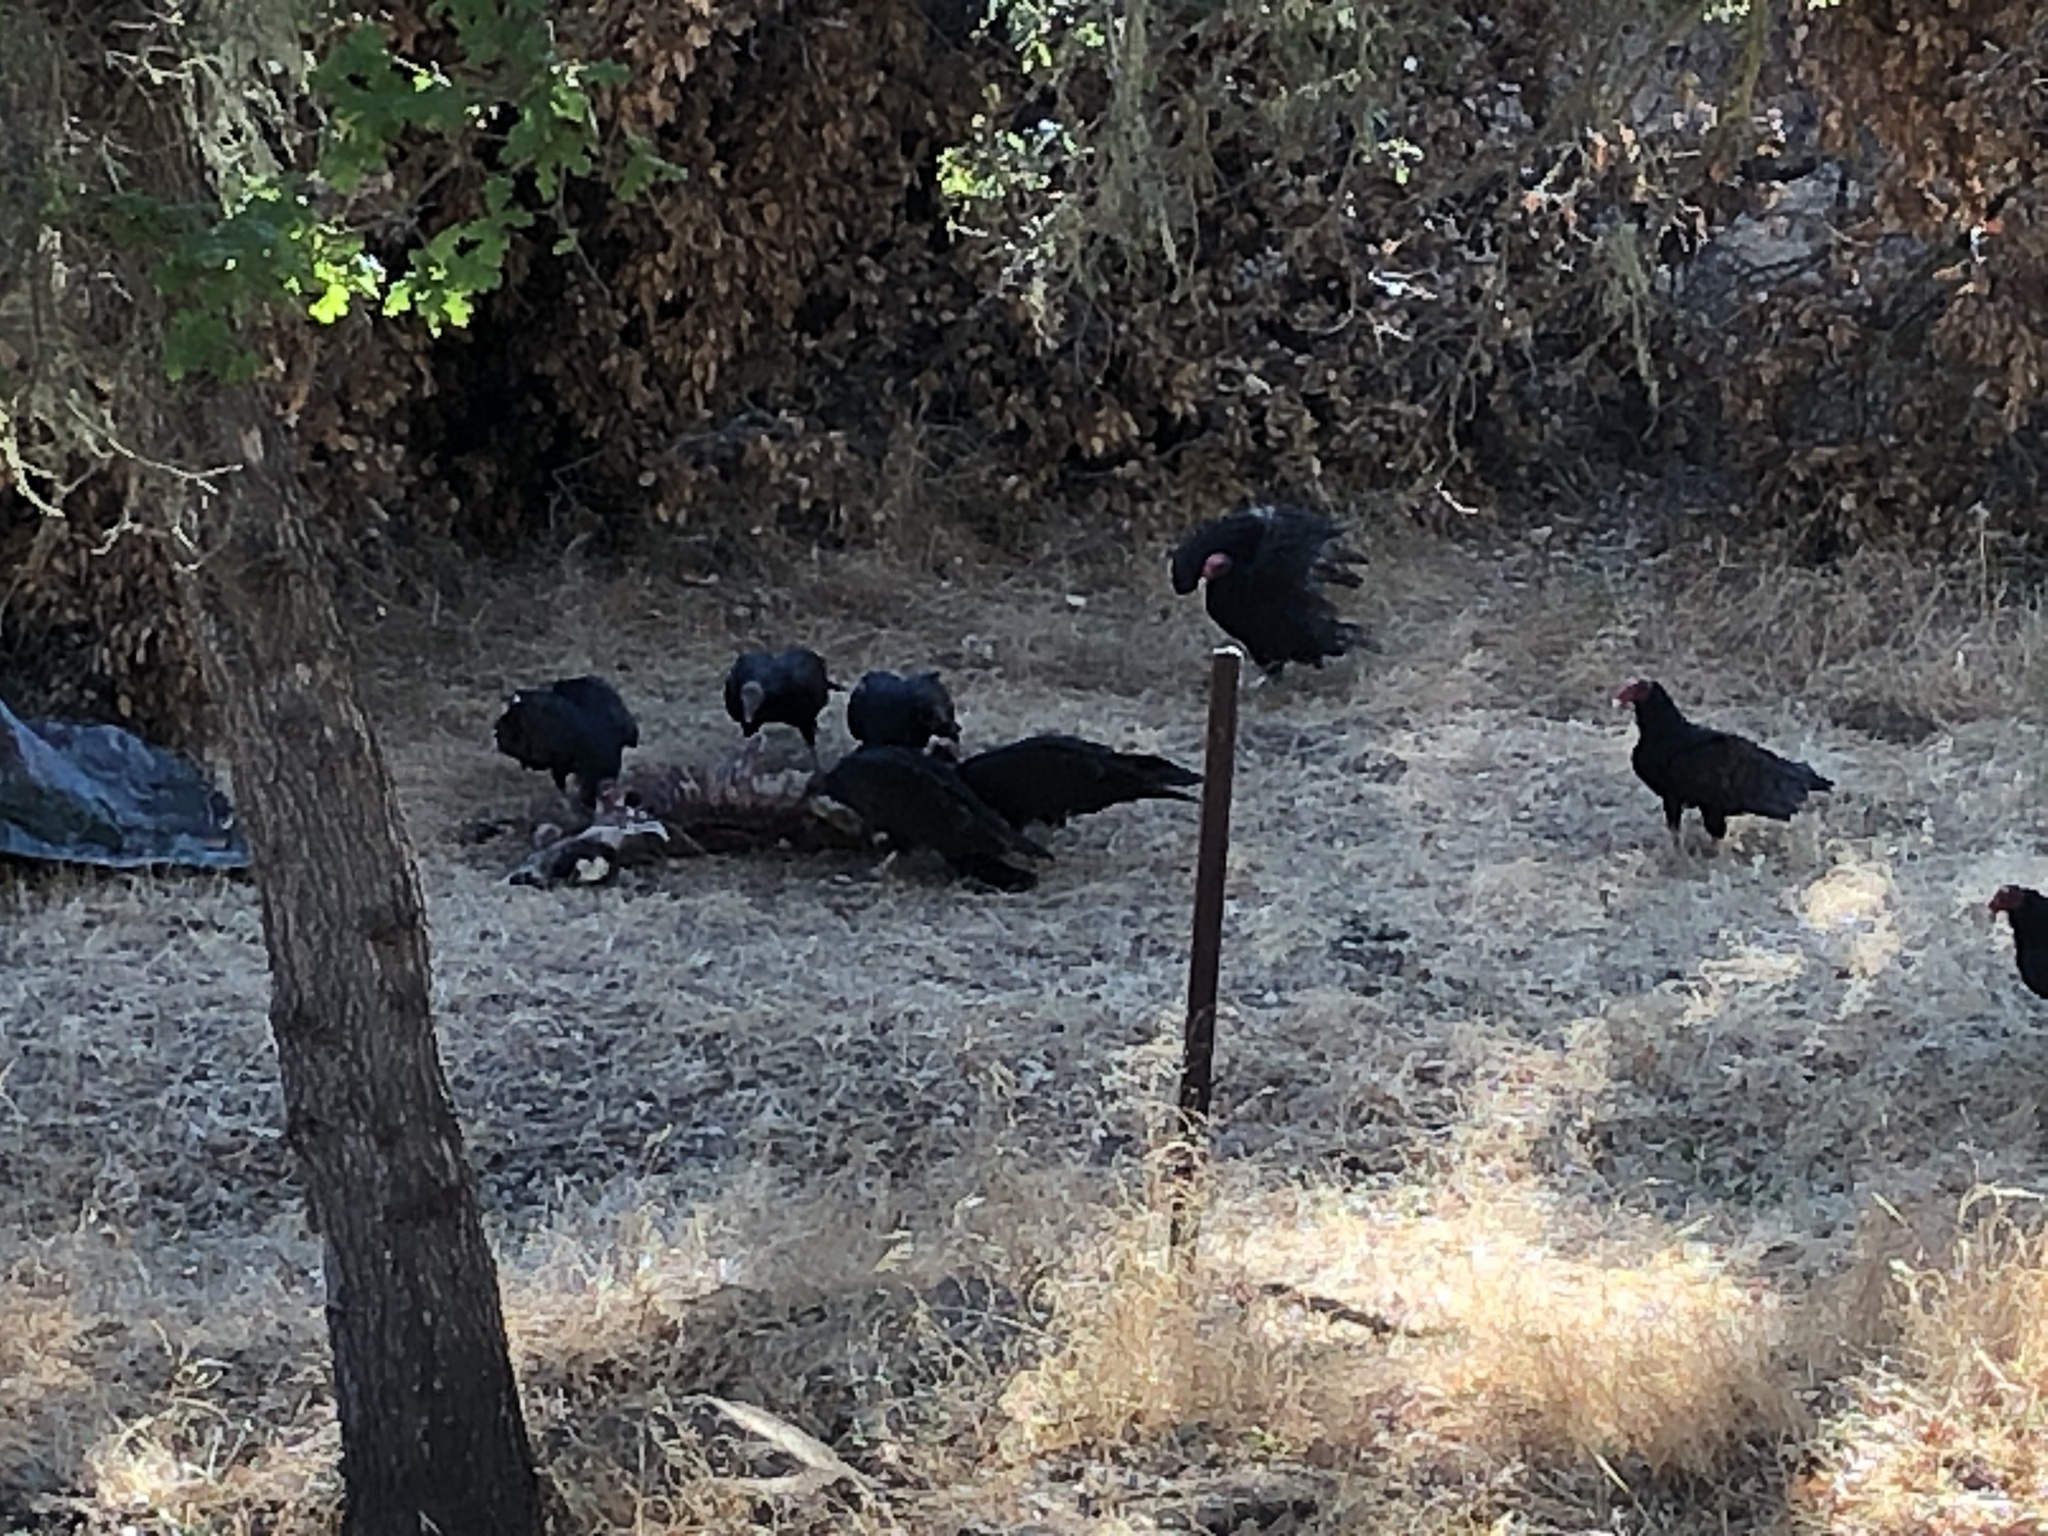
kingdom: Animalia
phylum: Chordata
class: Aves
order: Accipitriformes
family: Cathartidae
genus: Cathartes
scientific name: Cathartes aura
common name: Turkey vulture
